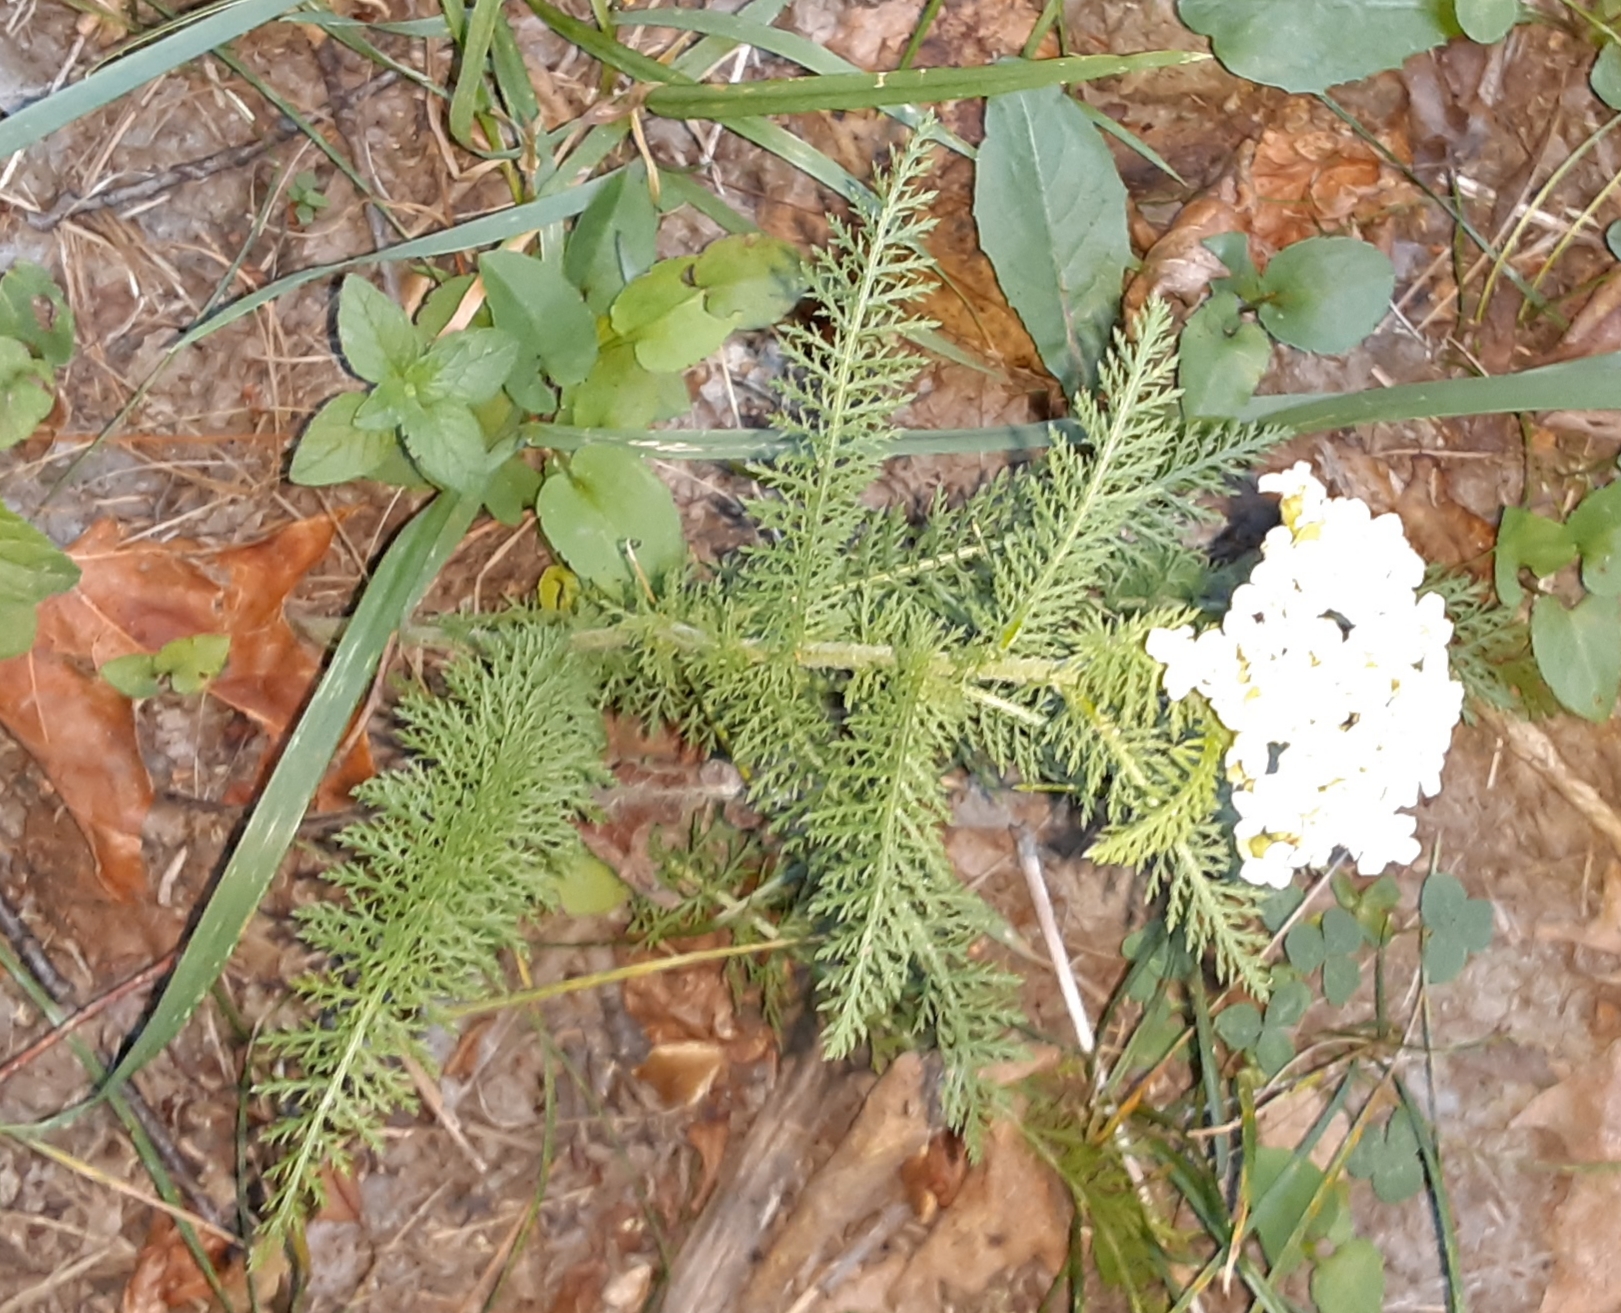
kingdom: Plantae
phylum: Tracheophyta
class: Magnoliopsida
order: Asterales
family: Asteraceae
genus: Achillea
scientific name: Achillea millefolium
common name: Yarrow
